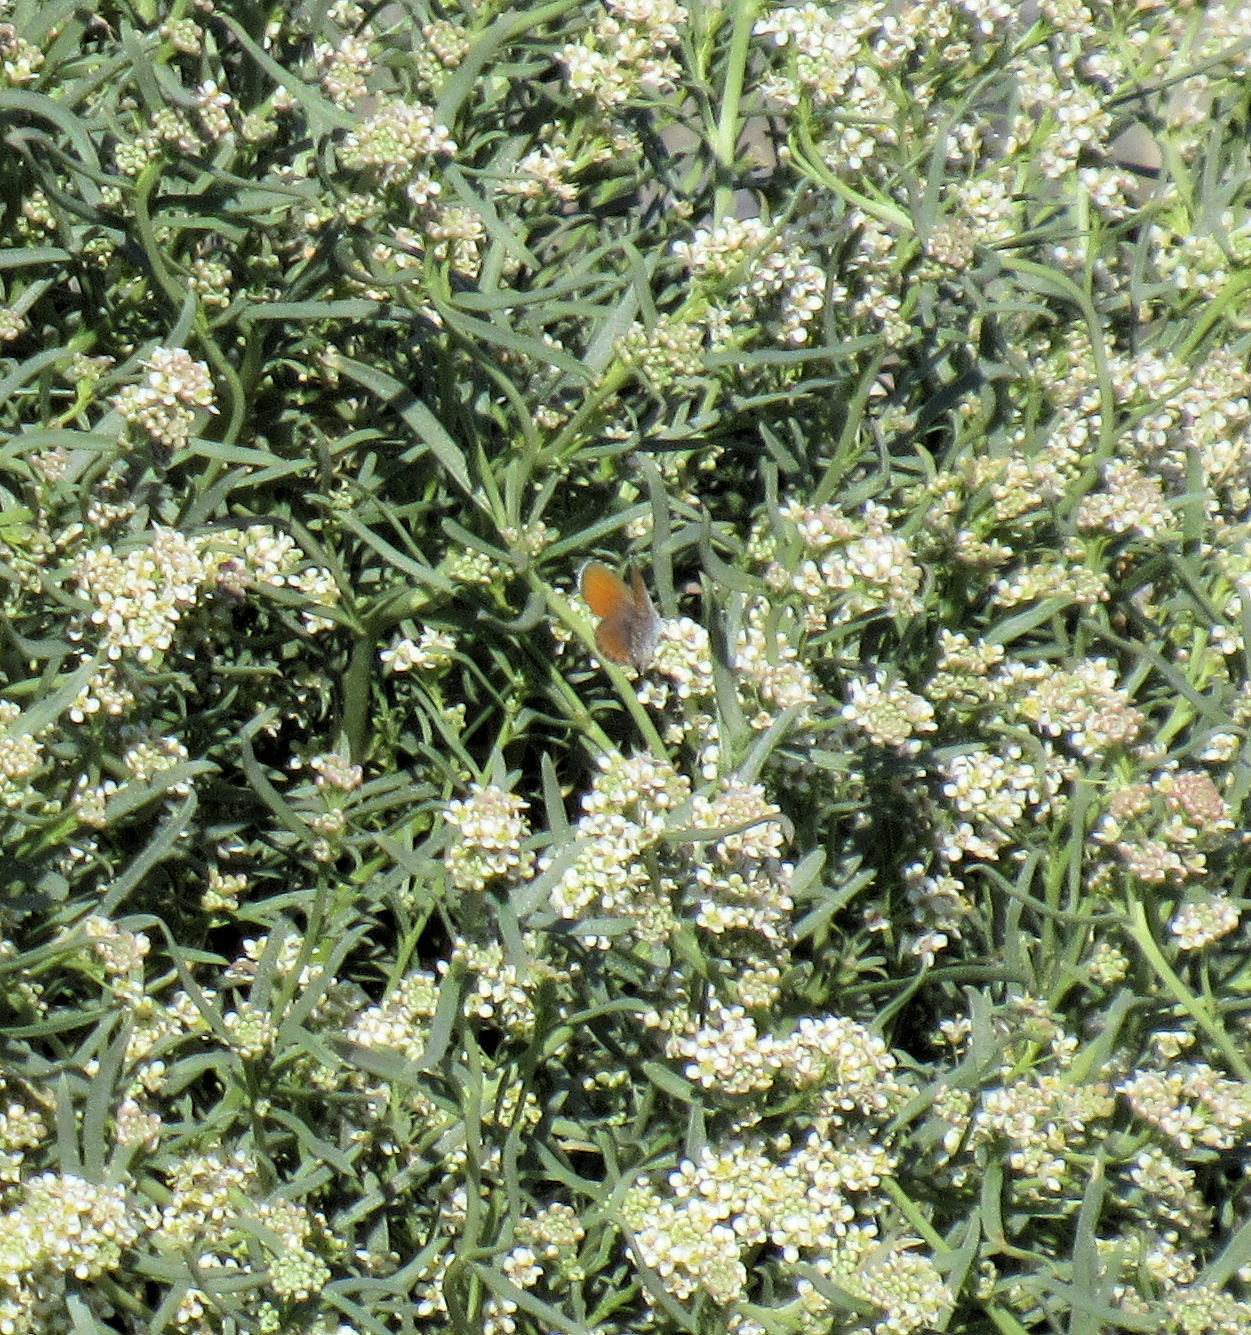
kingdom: Animalia
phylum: Arthropoda
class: Insecta
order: Lepidoptera
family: Lycaenidae
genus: Brephidium
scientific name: Brephidium exilis
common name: Pygmy blue
